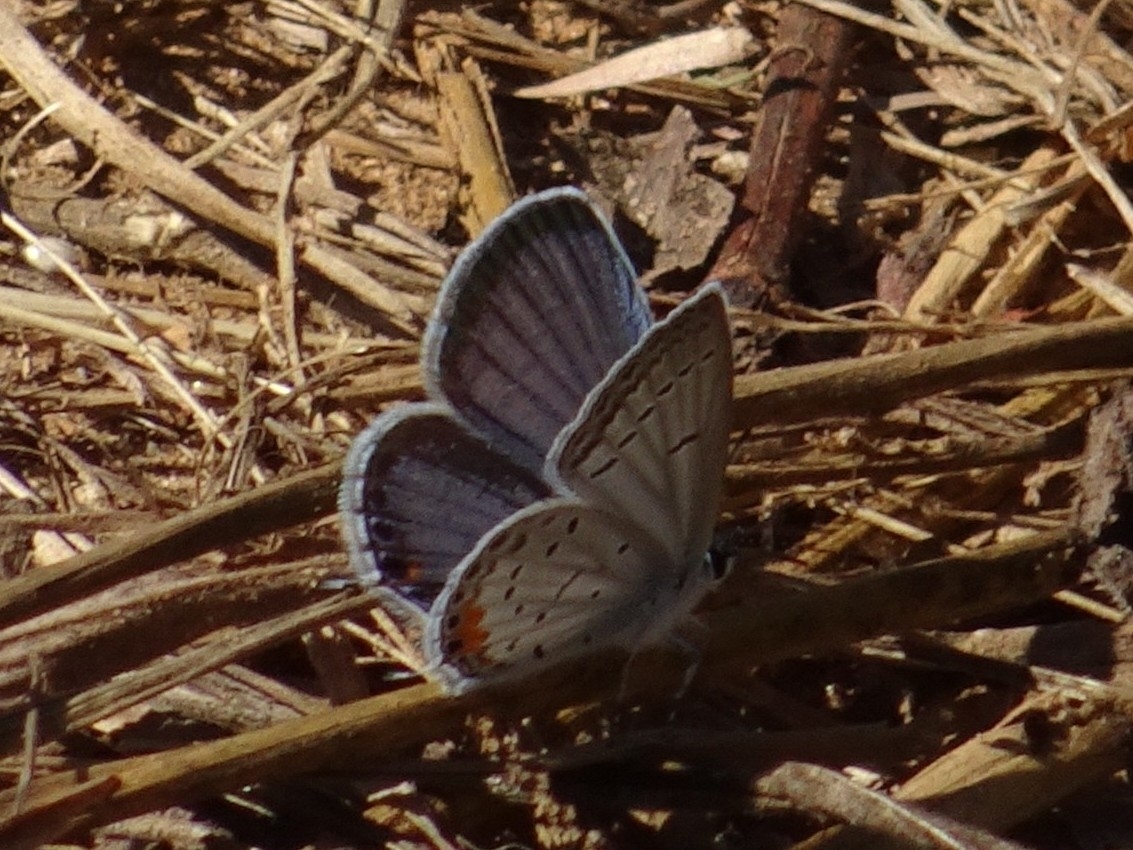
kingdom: Animalia
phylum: Arthropoda
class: Insecta
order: Lepidoptera
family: Lycaenidae
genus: Elkalyce
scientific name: Elkalyce comyntas
